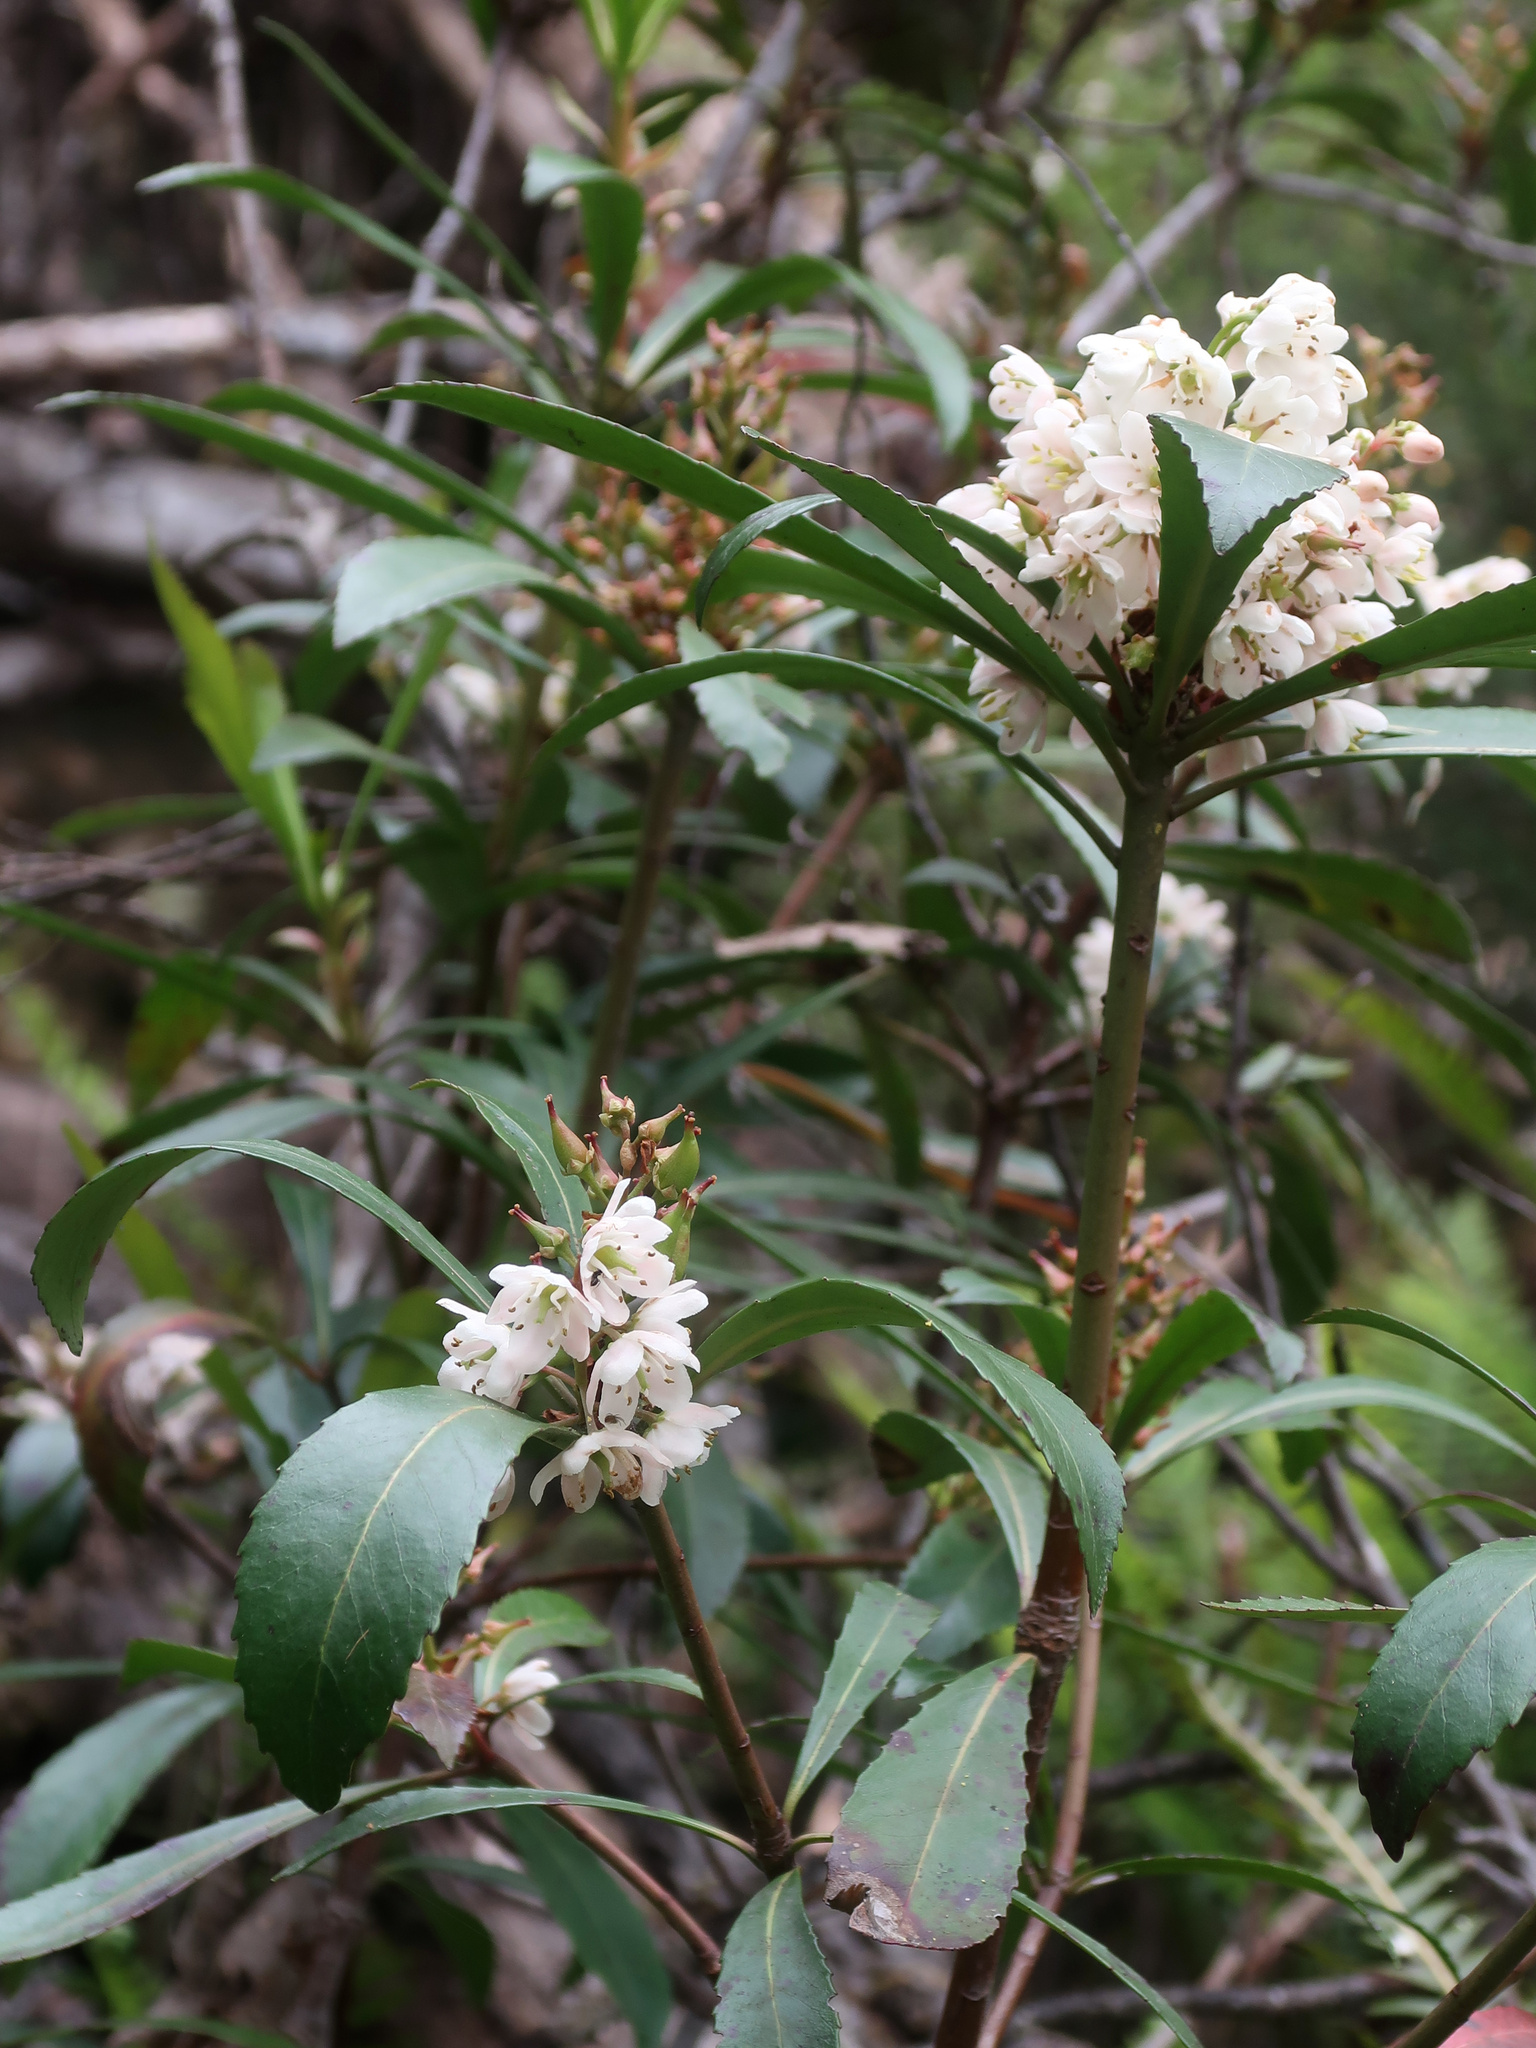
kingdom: Plantae
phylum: Tracheophyta
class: Magnoliopsida
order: Escalloniales
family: Escalloniaceae
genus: Anopterus
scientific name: Anopterus glandulosus
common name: Tasmanian-laurel
